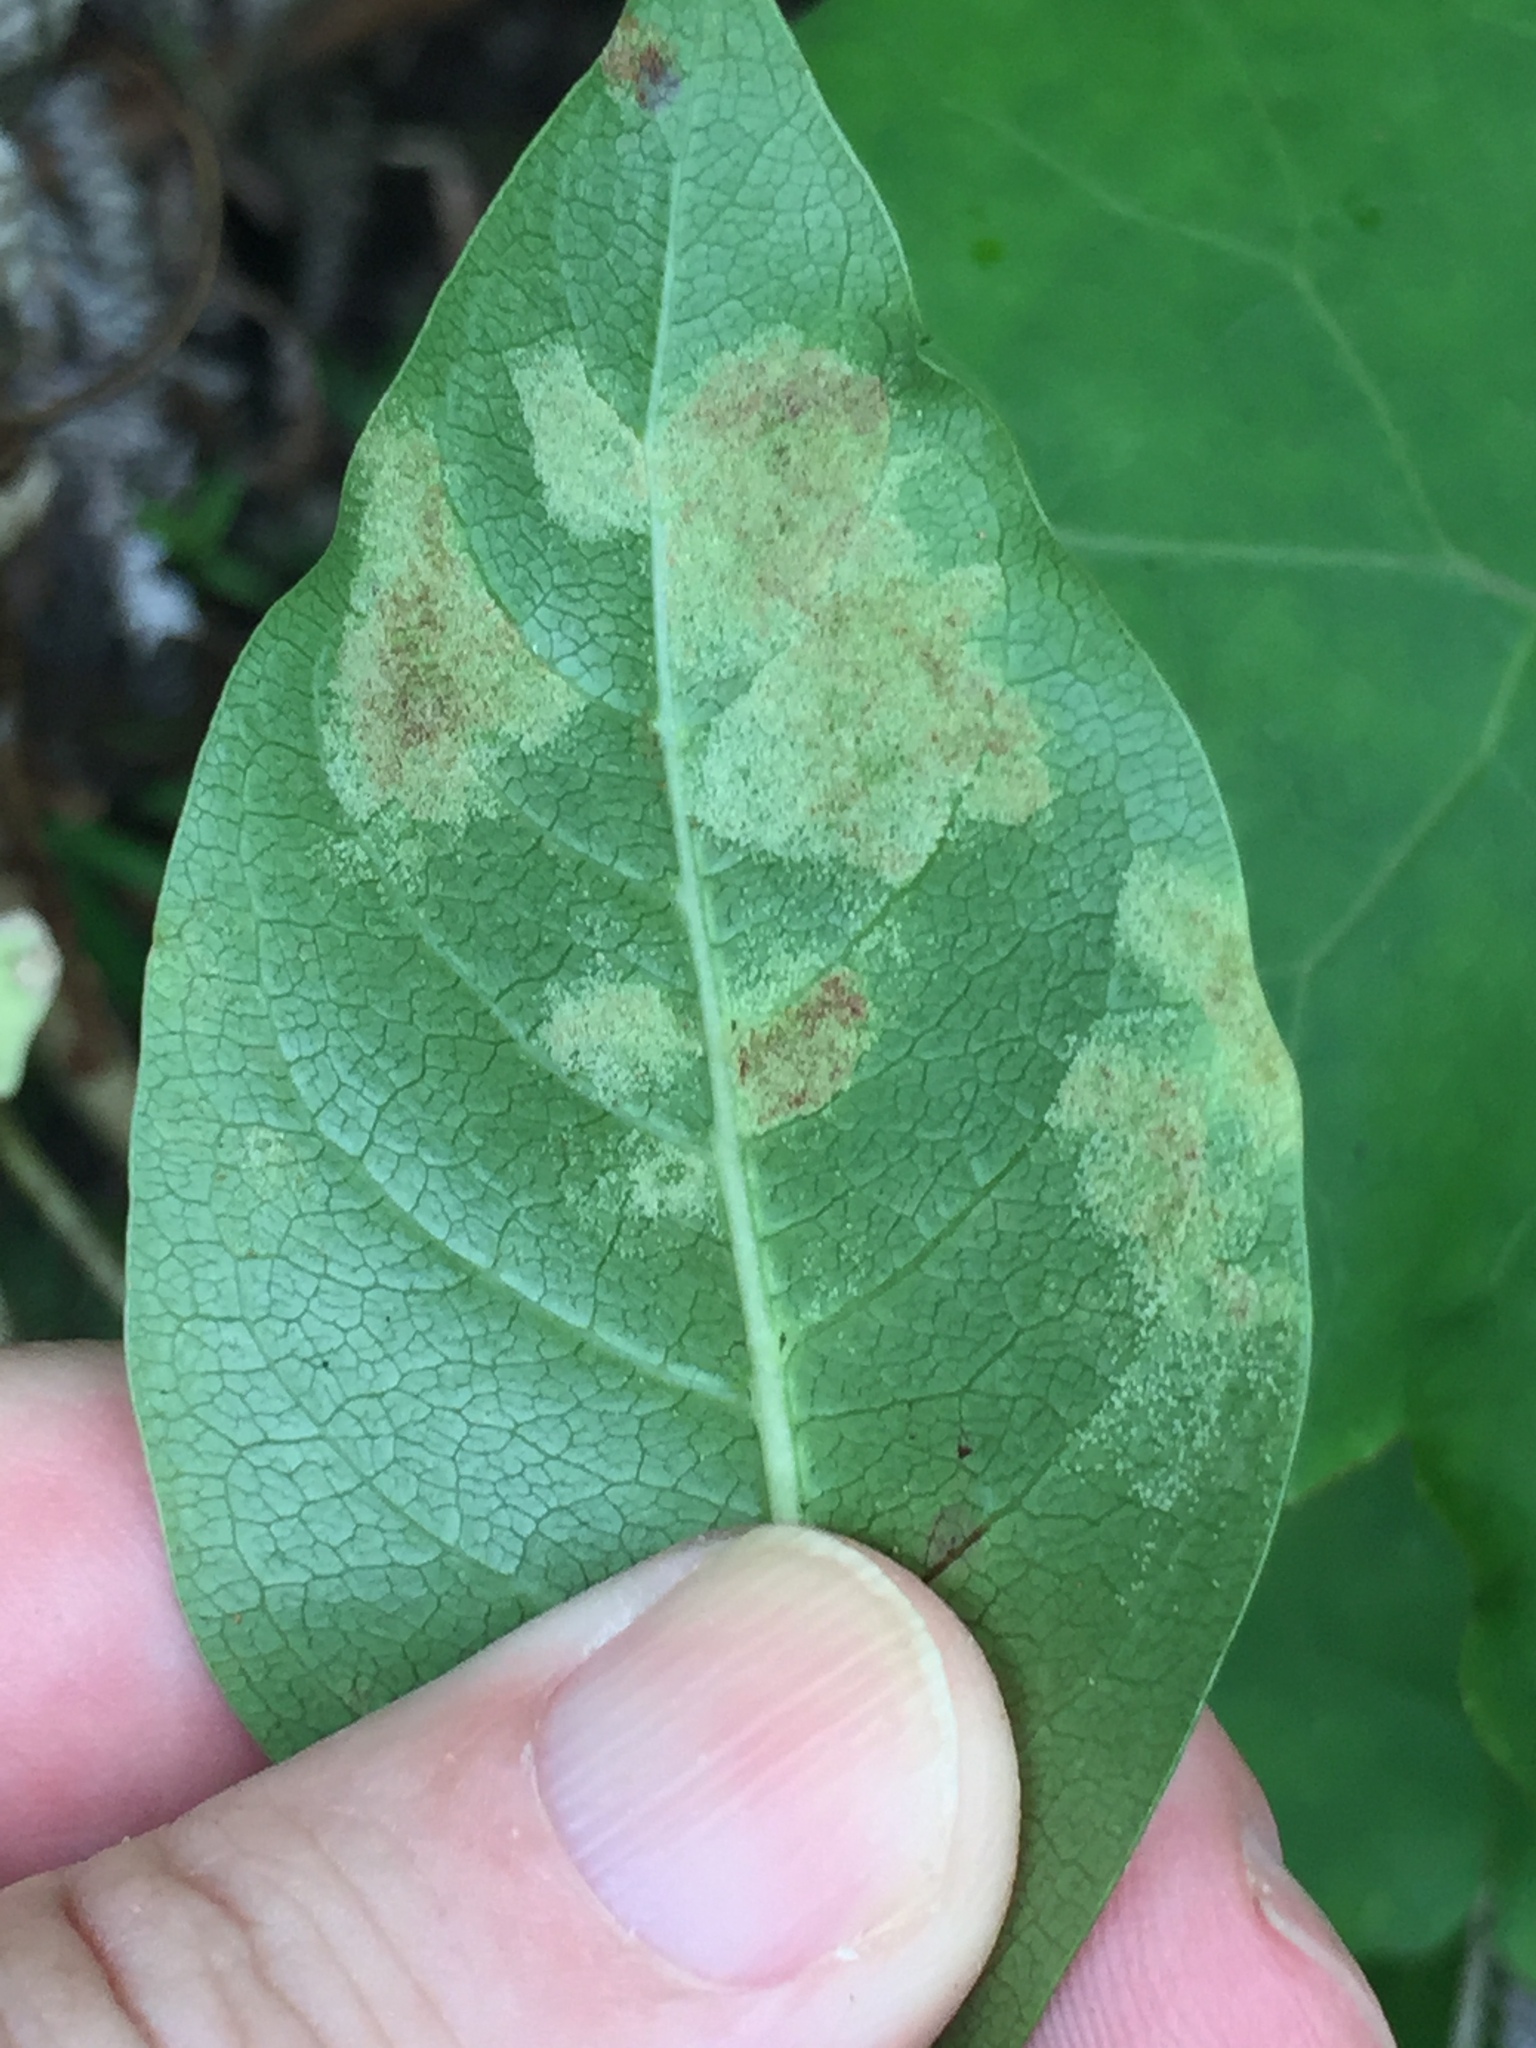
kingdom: Animalia
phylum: Arthropoda
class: Arachnida
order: Trombidiformes
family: Eriophyidae
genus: Phyllocoptes
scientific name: Phyllocoptes coprosmae
